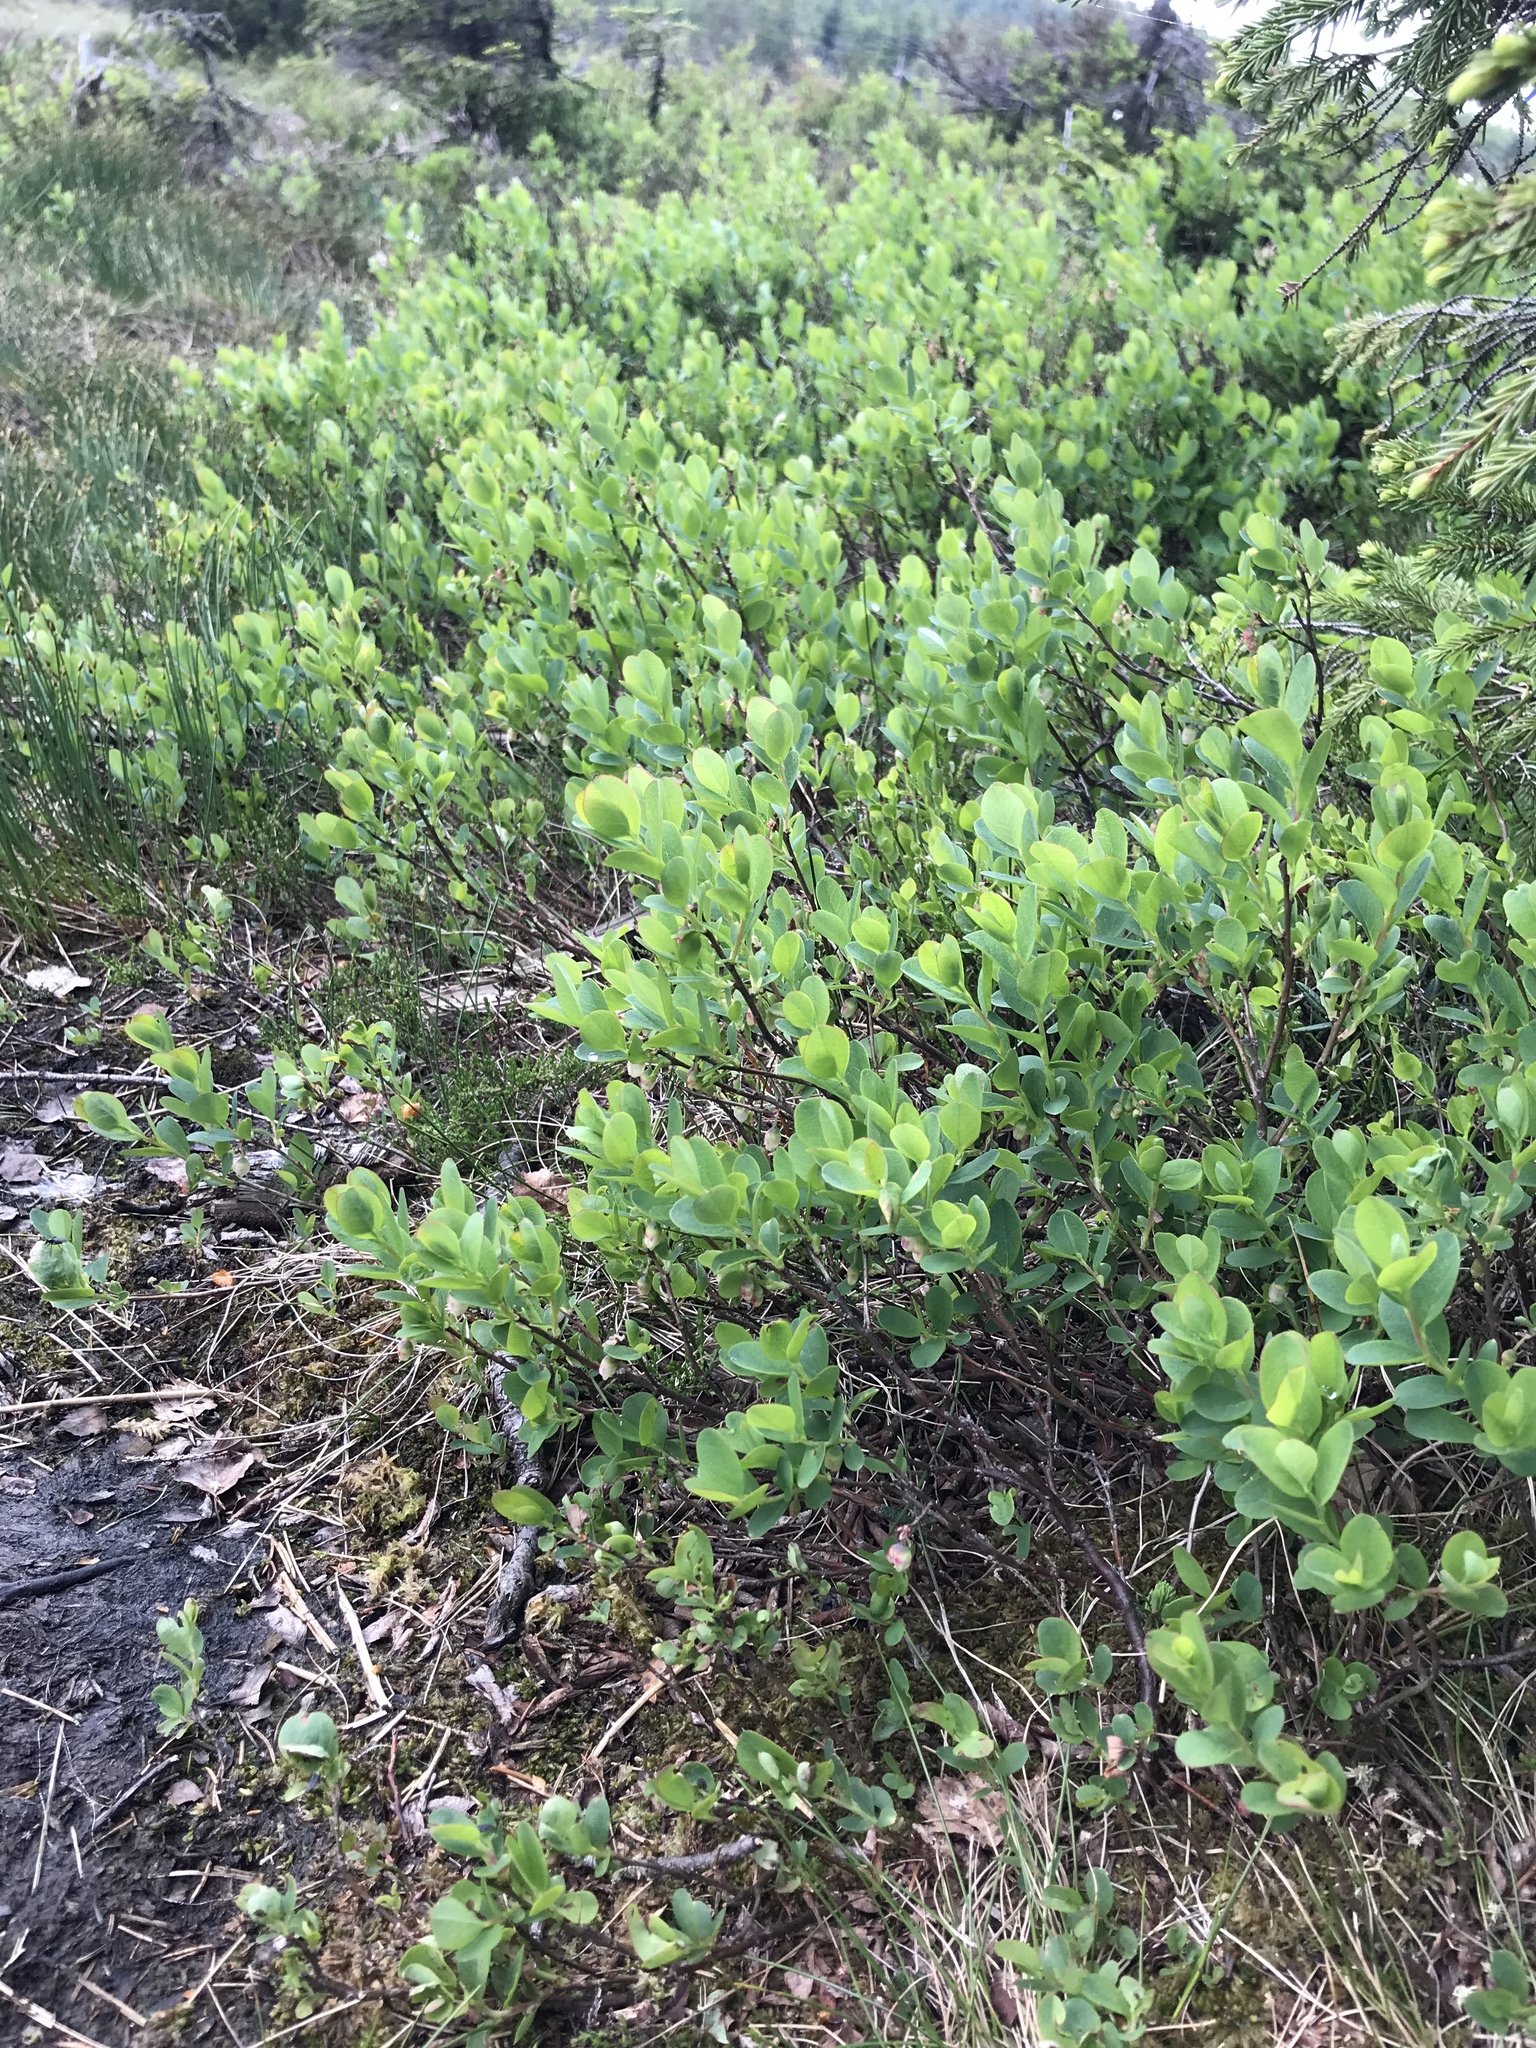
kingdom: Plantae
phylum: Tracheophyta
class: Magnoliopsida
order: Ericales
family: Ericaceae
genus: Vaccinium
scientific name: Vaccinium uliginosum
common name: Bog bilberry
